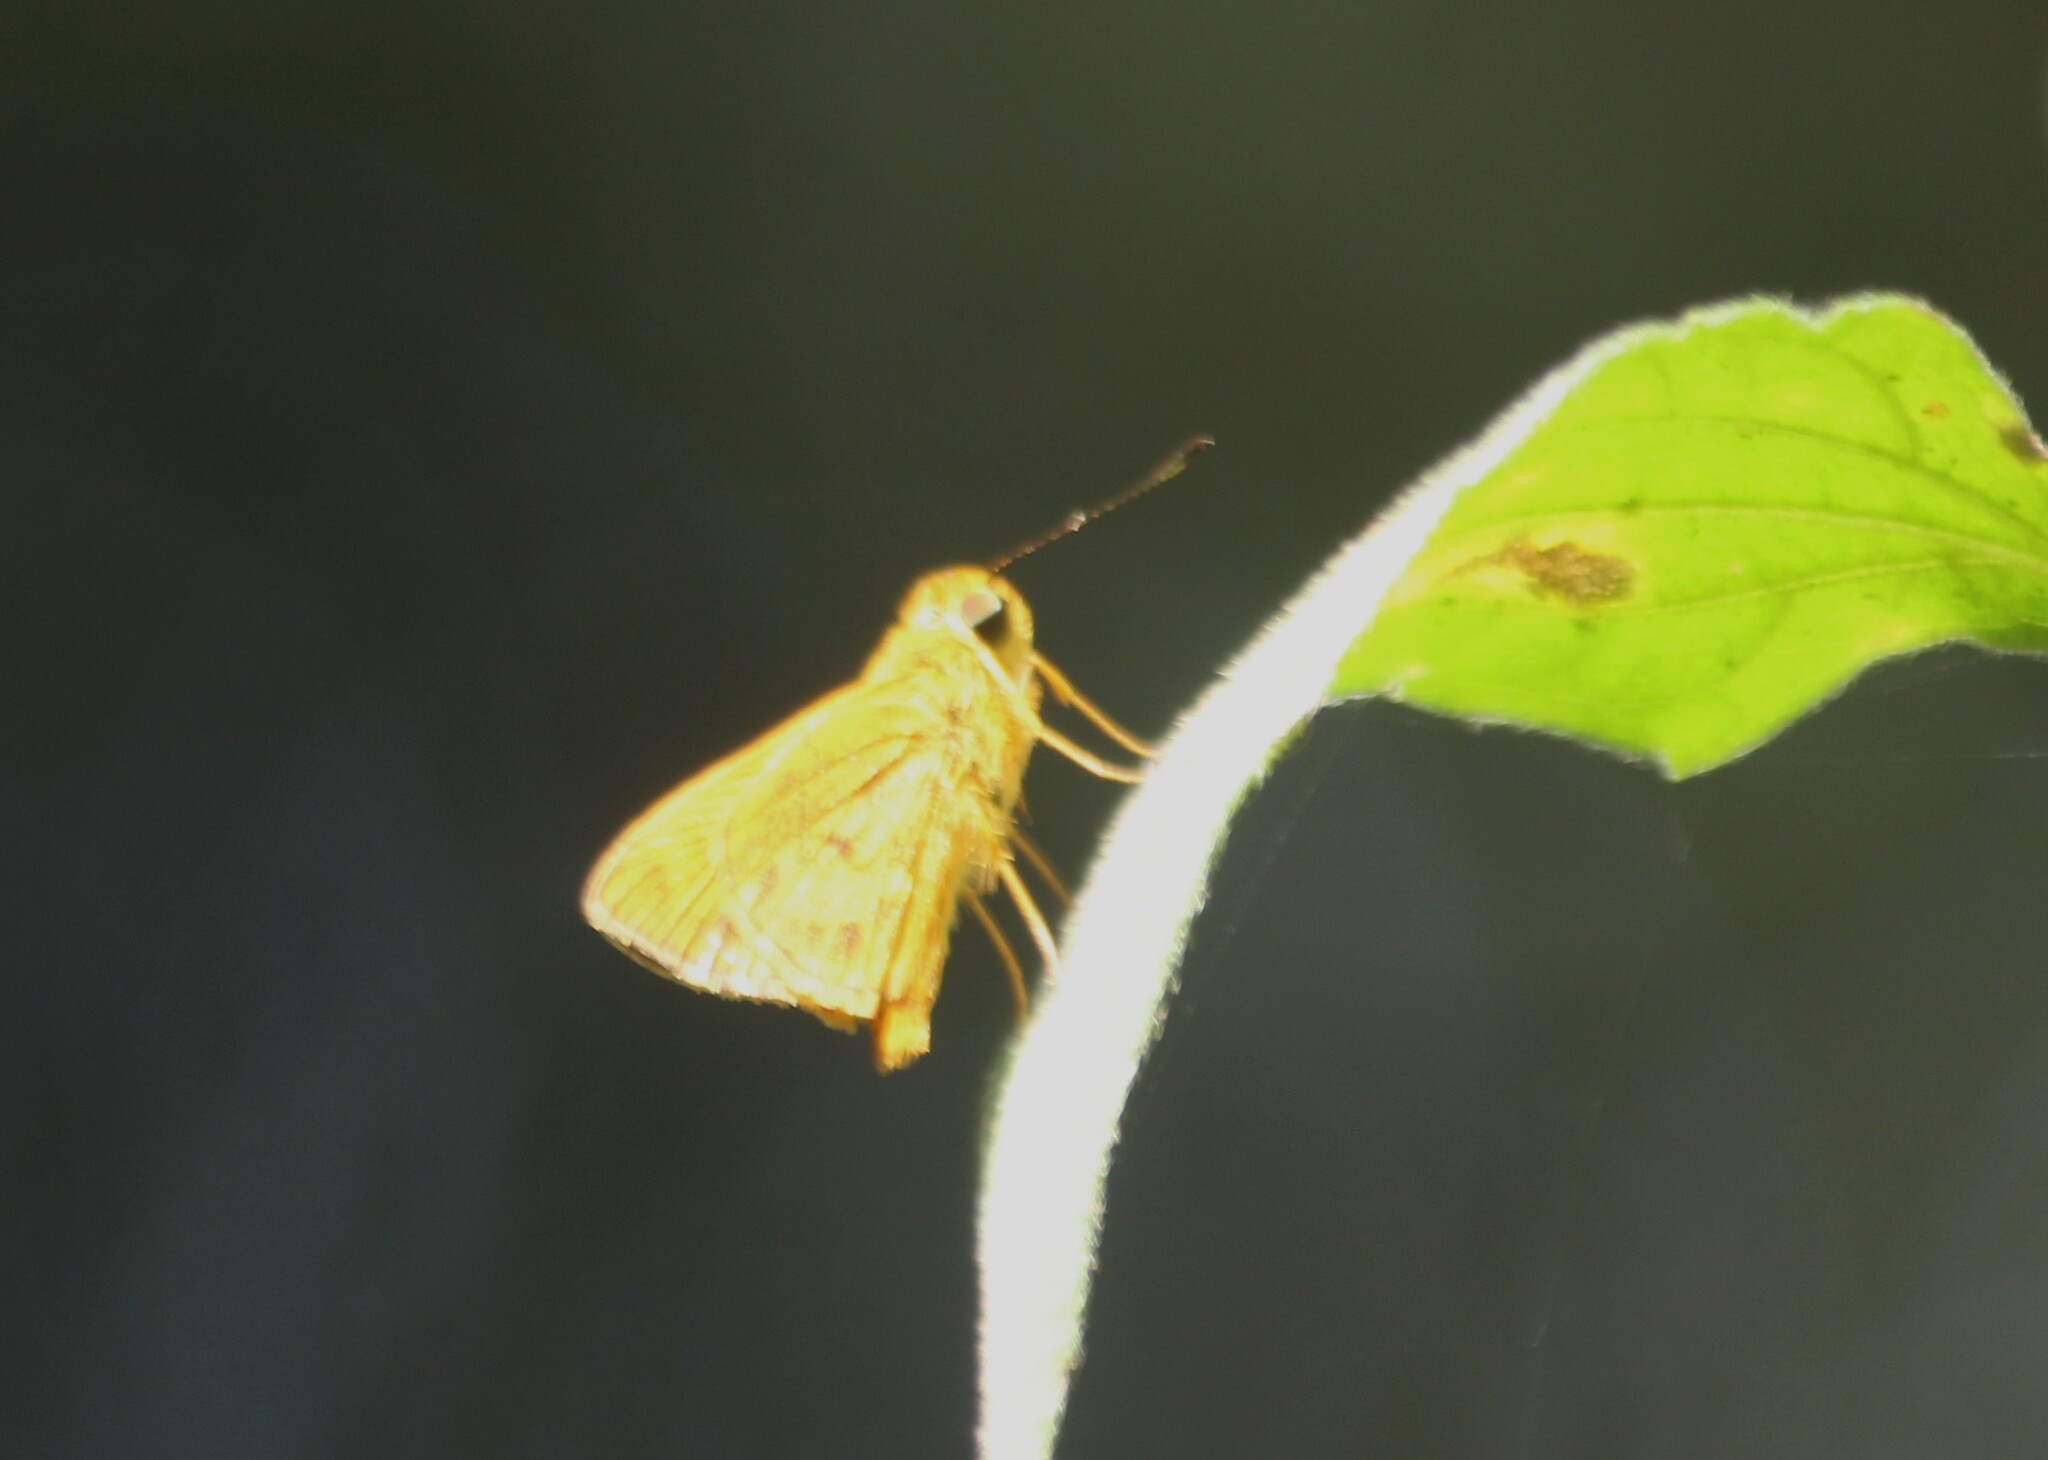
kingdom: Animalia
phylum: Arthropoda
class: Insecta
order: Lepidoptera
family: Hesperiidae
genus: Oriens
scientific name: Oriens goloides
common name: Smaller dartlet
